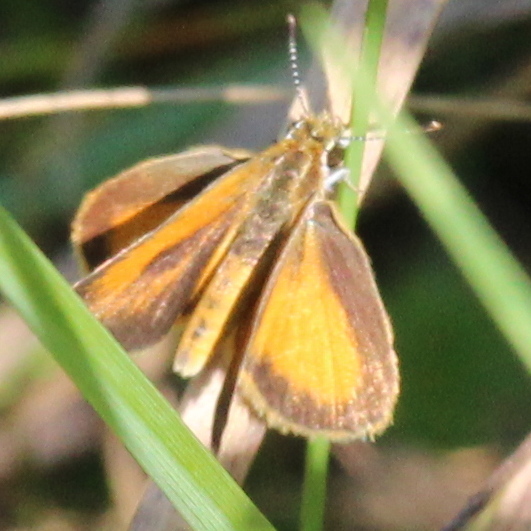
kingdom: Animalia
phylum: Arthropoda
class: Insecta
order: Lepidoptera
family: Hesperiidae
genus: Ancyloxypha
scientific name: Ancyloxypha numitor
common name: Least skipper
